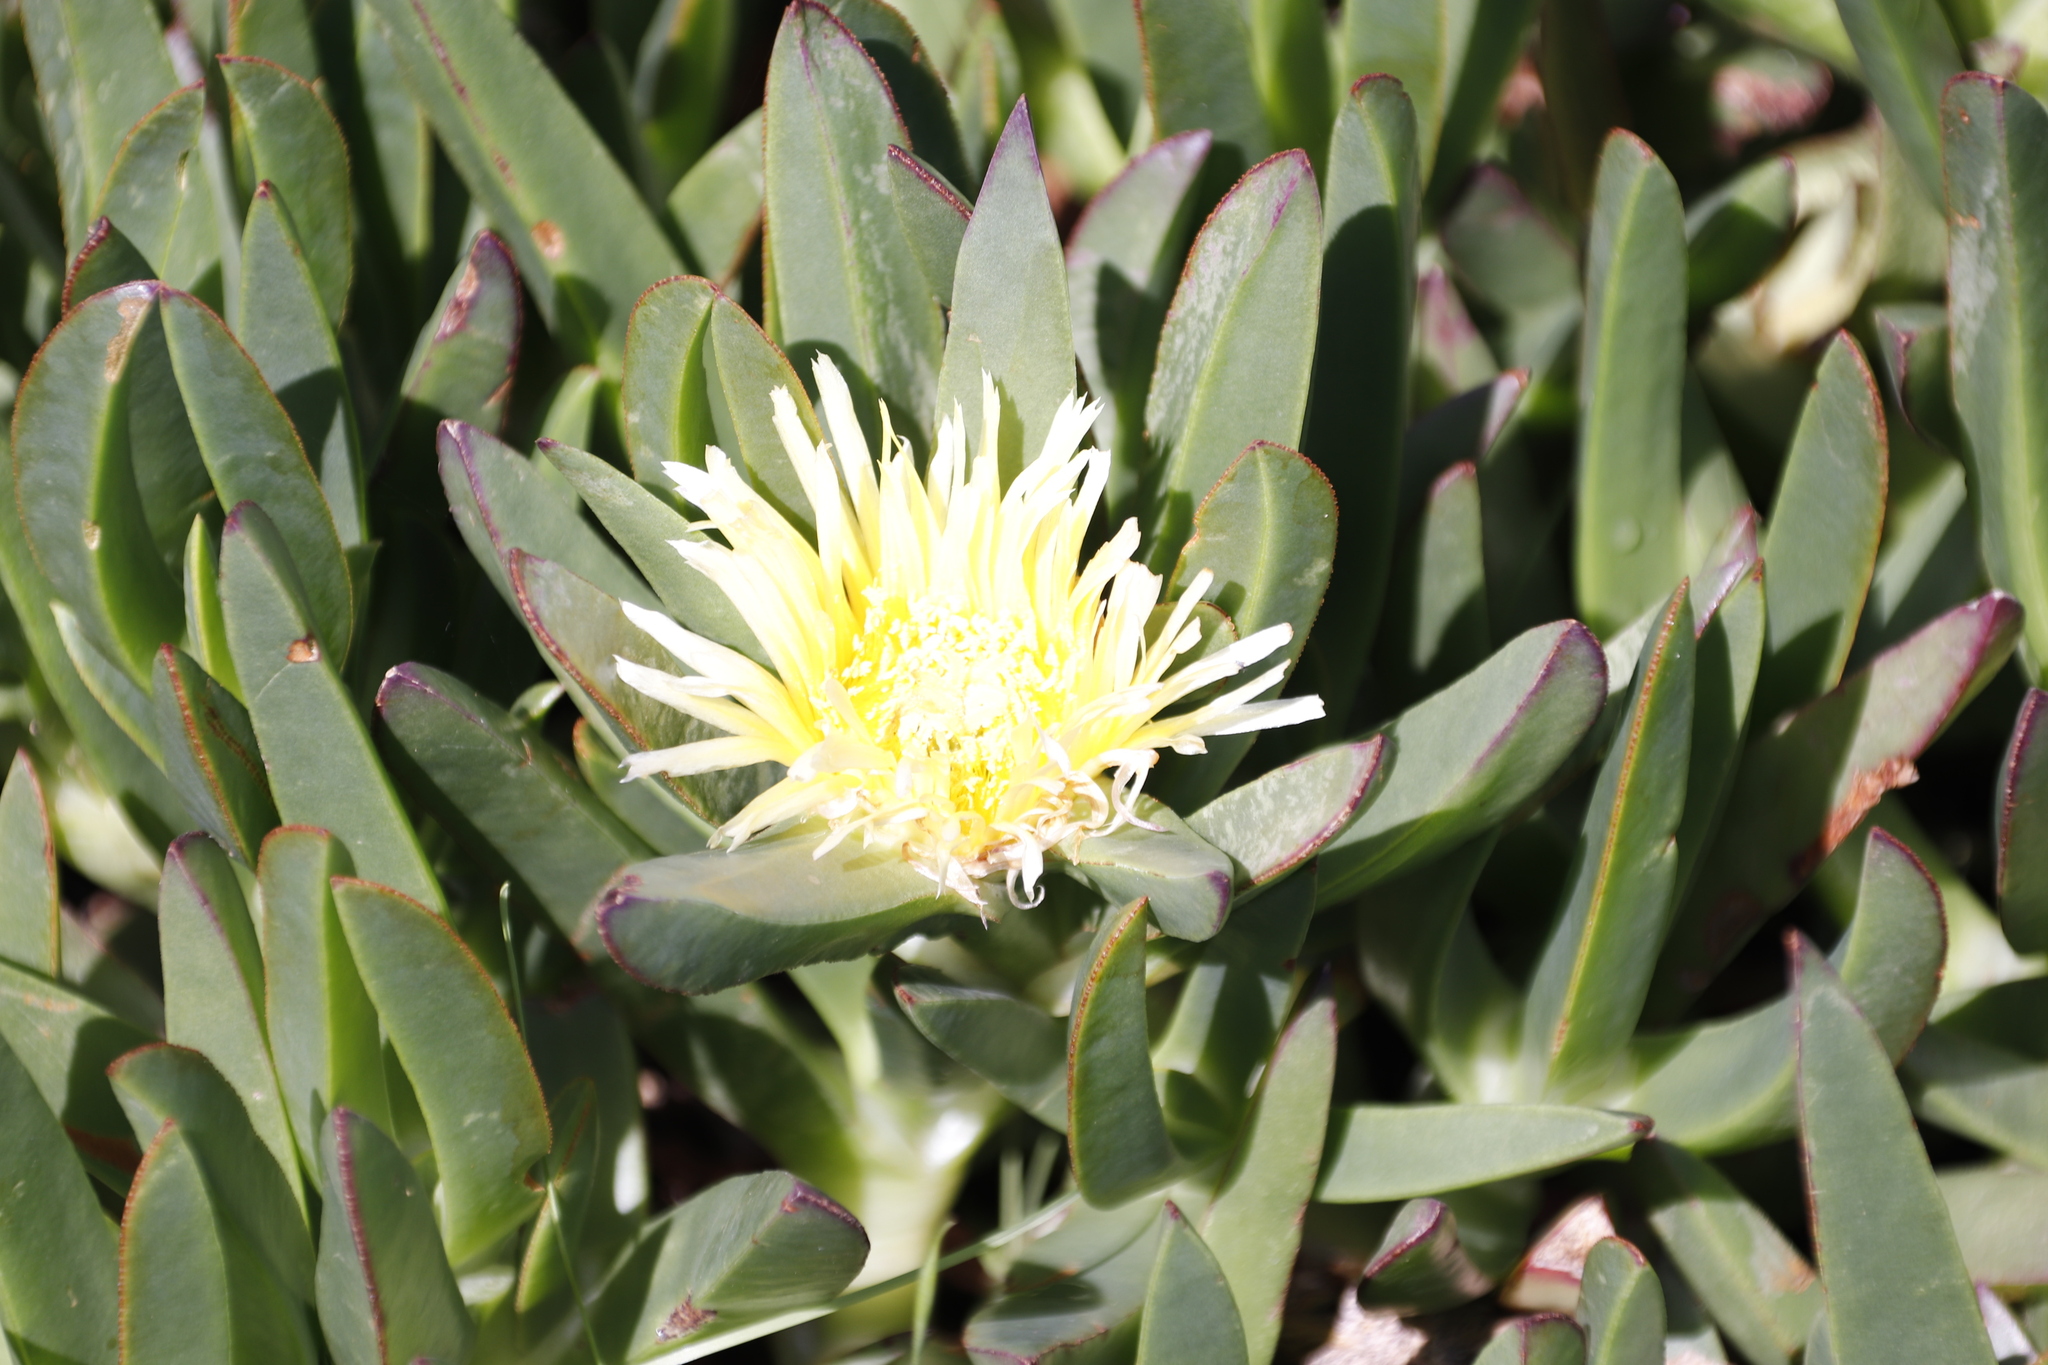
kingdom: Plantae
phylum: Tracheophyta
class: Magnoliopsida
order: Caryophyllales
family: Aizoaceae
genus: Carpobrotus
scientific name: Carpobrotus edulis
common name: Hottentot-fig
